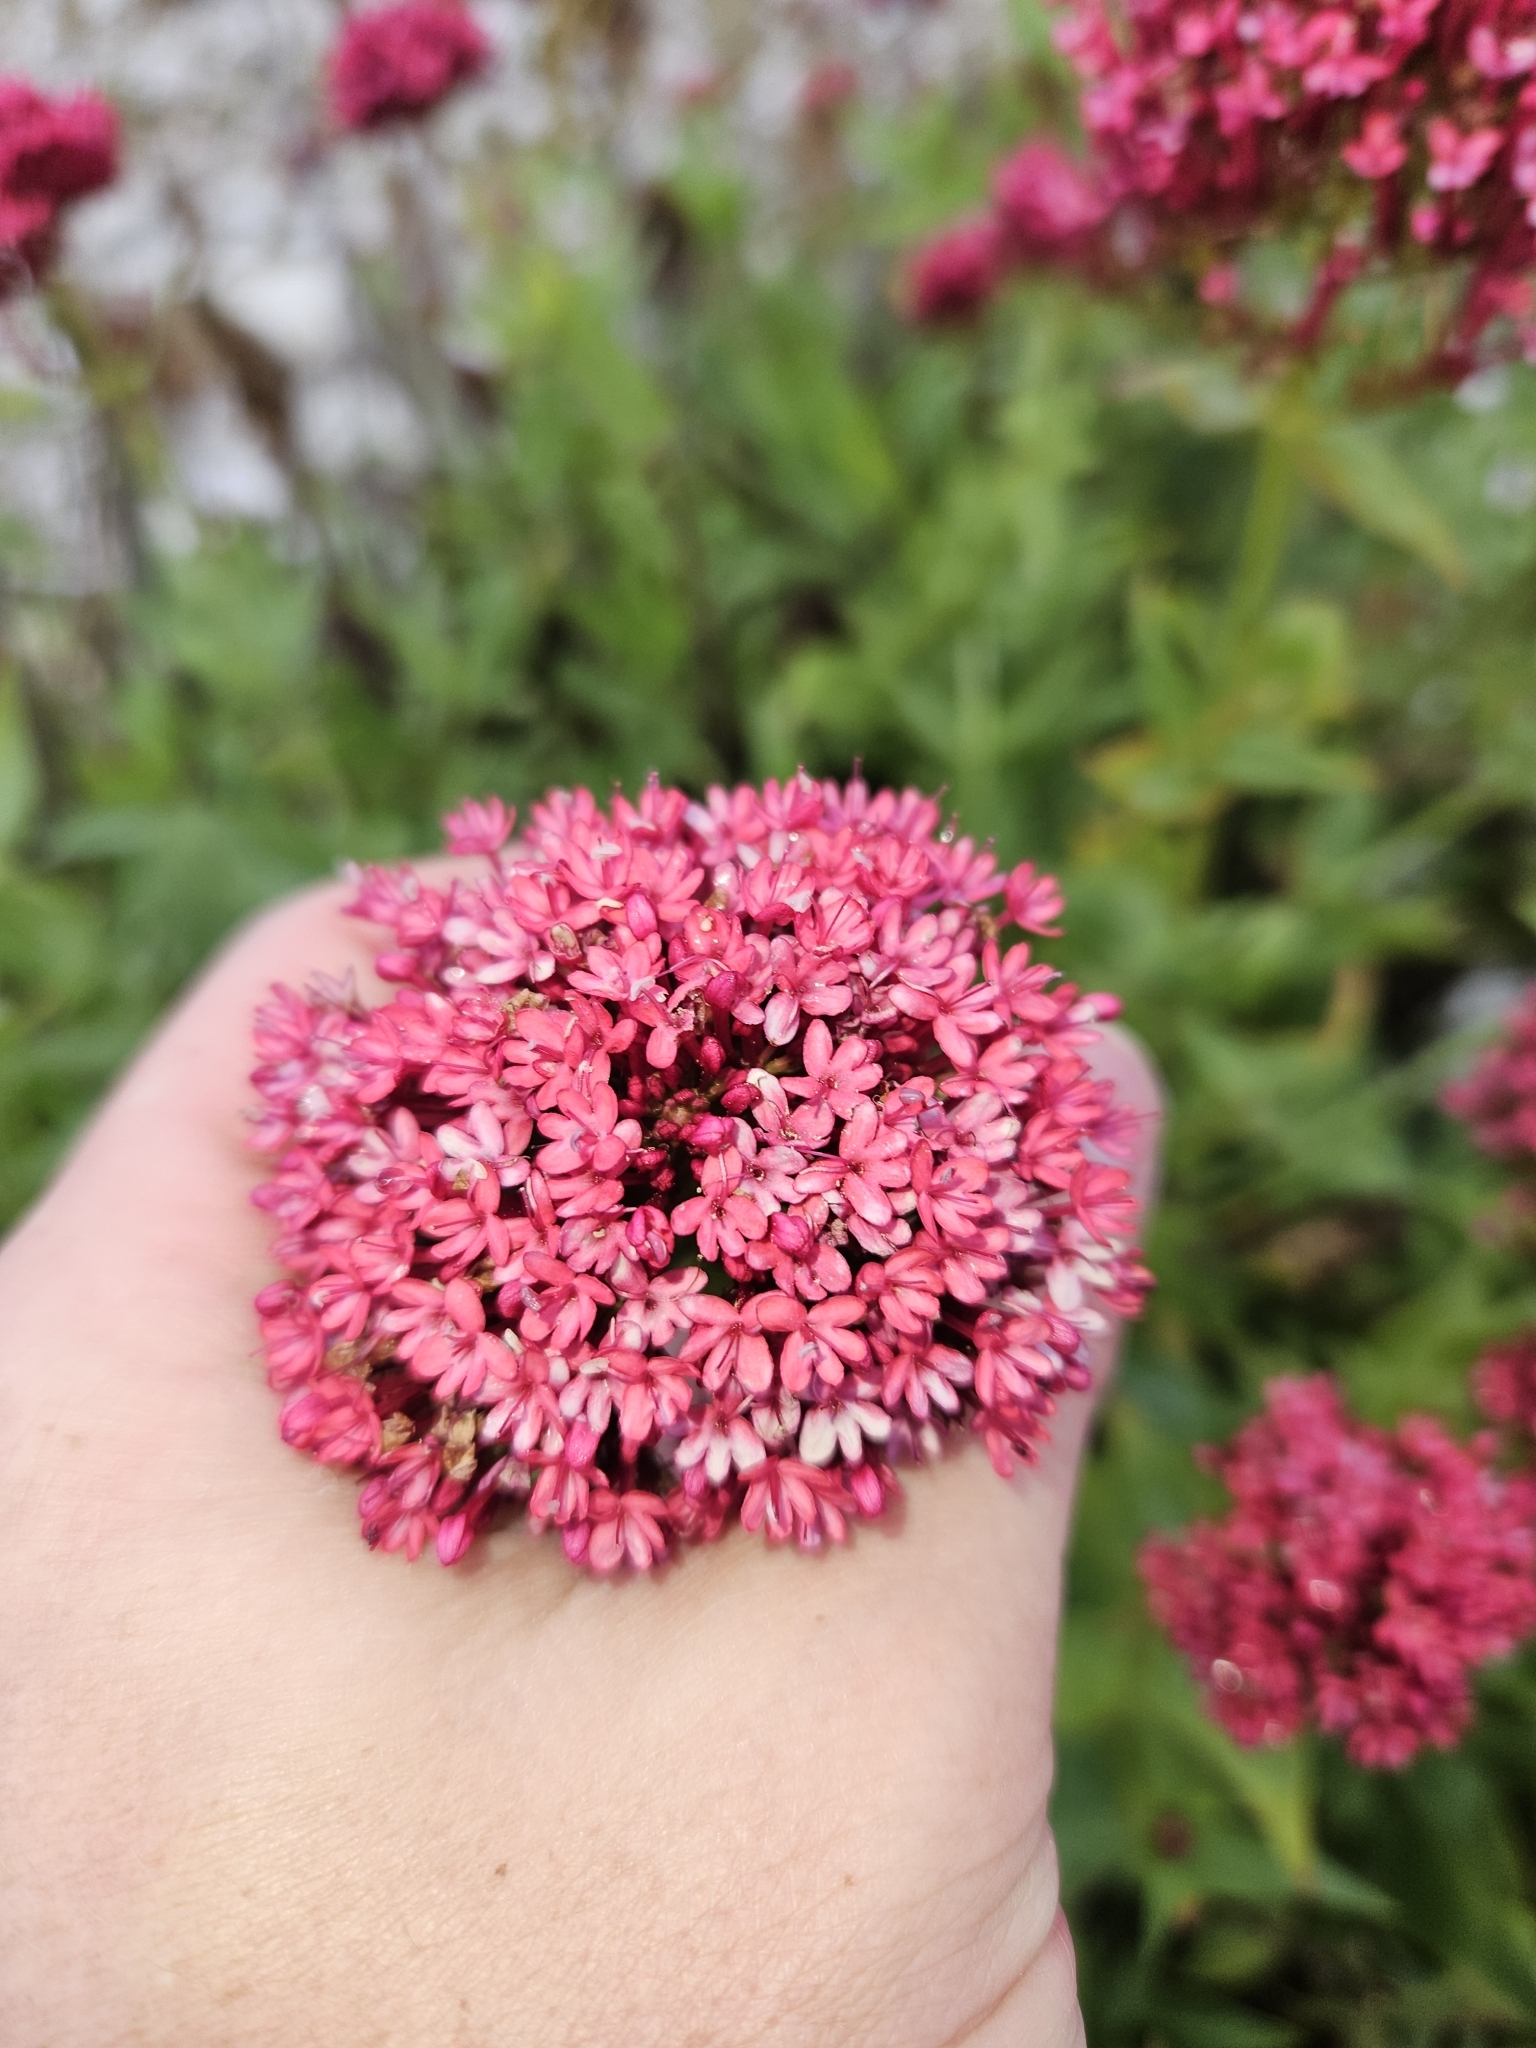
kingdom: Plantae
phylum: Tracheophyta
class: Magnoliopsida
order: Dipsacales
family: Caprifoliaceae
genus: Centranthus
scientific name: Centranthus ruber
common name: Red valerian
